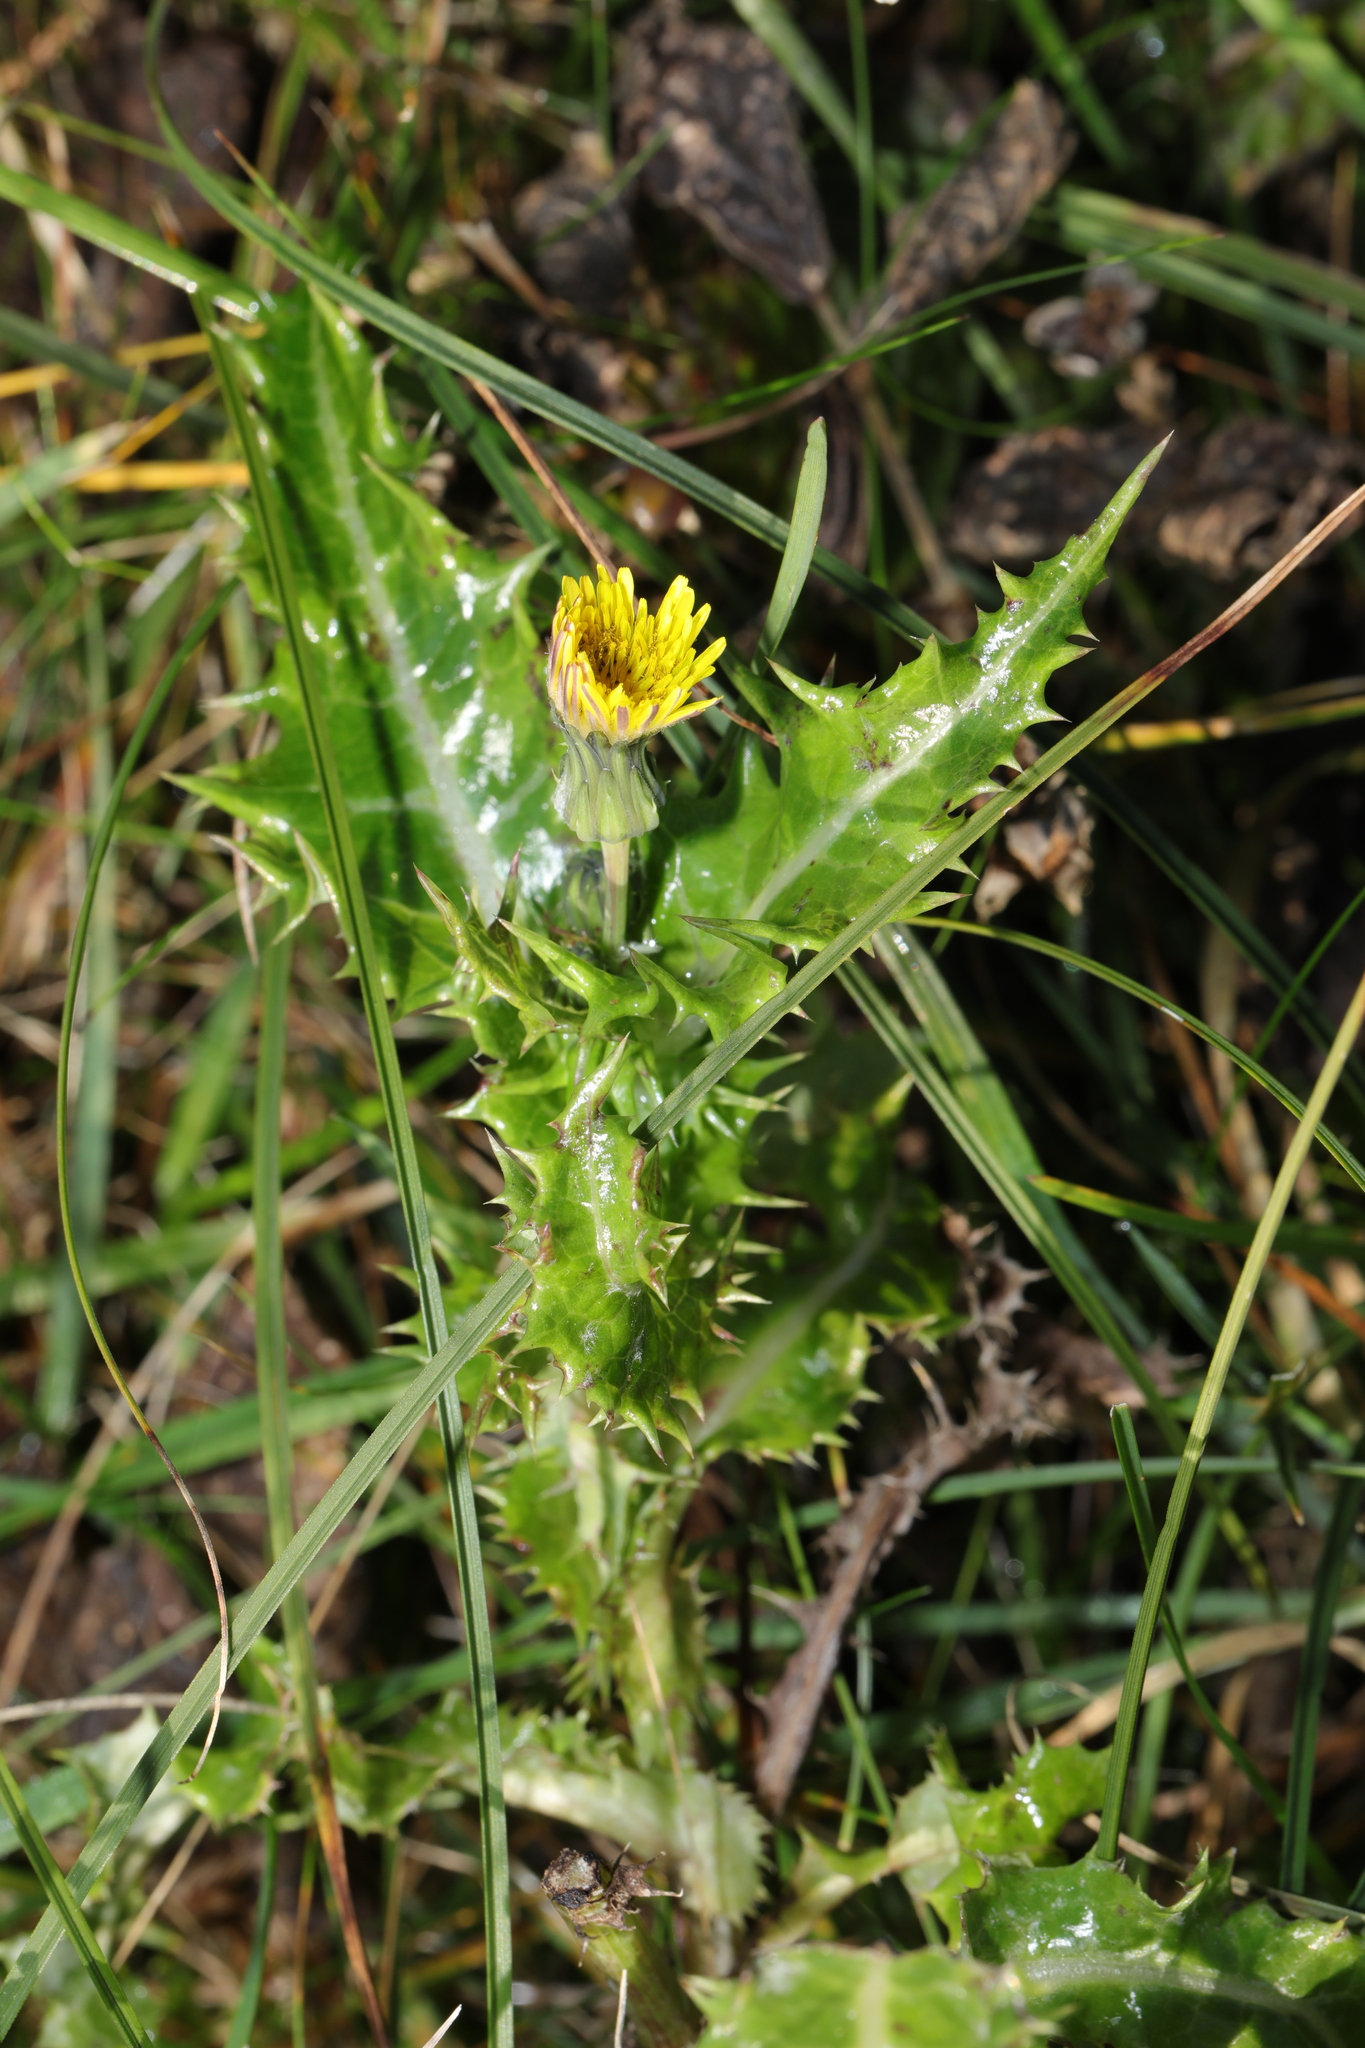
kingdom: Plantae
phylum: Tracheophyta
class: Magnoliopsida
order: Asterales
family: Asteraceae
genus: Sonchus
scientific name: Sonchus asper
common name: Prickly sow-thistle
